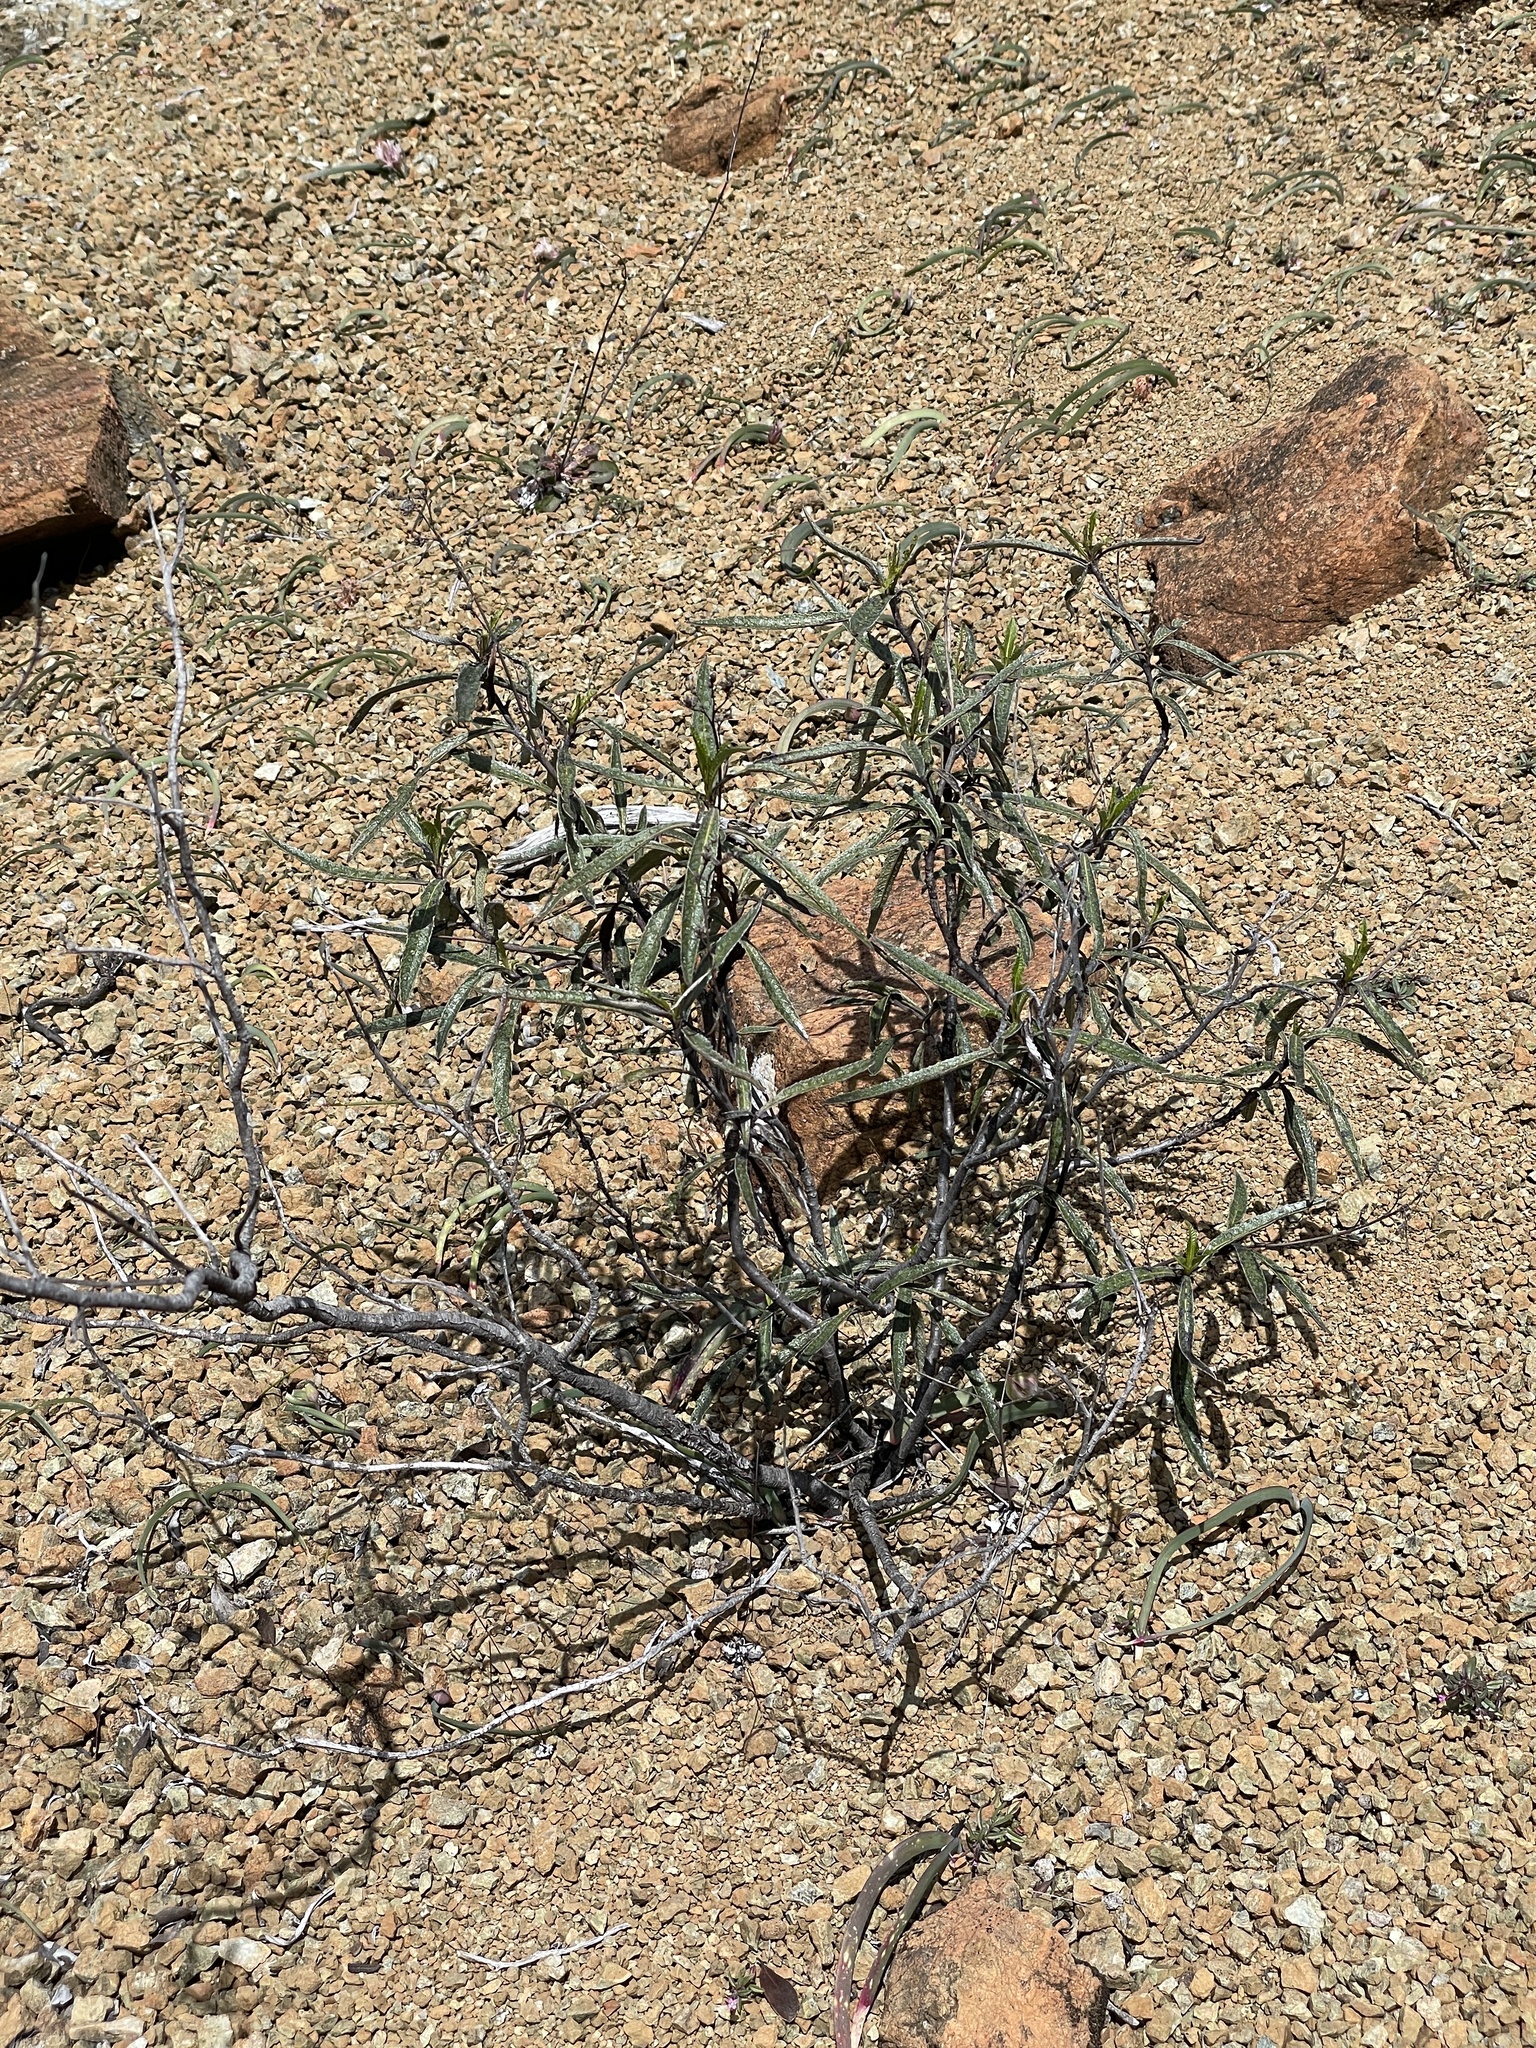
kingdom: Plantae
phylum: Tracheophyta
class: Magnoliopsida
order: Boraginales
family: Namaceae
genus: Eriodictyon
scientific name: Eriodictyon californicum
